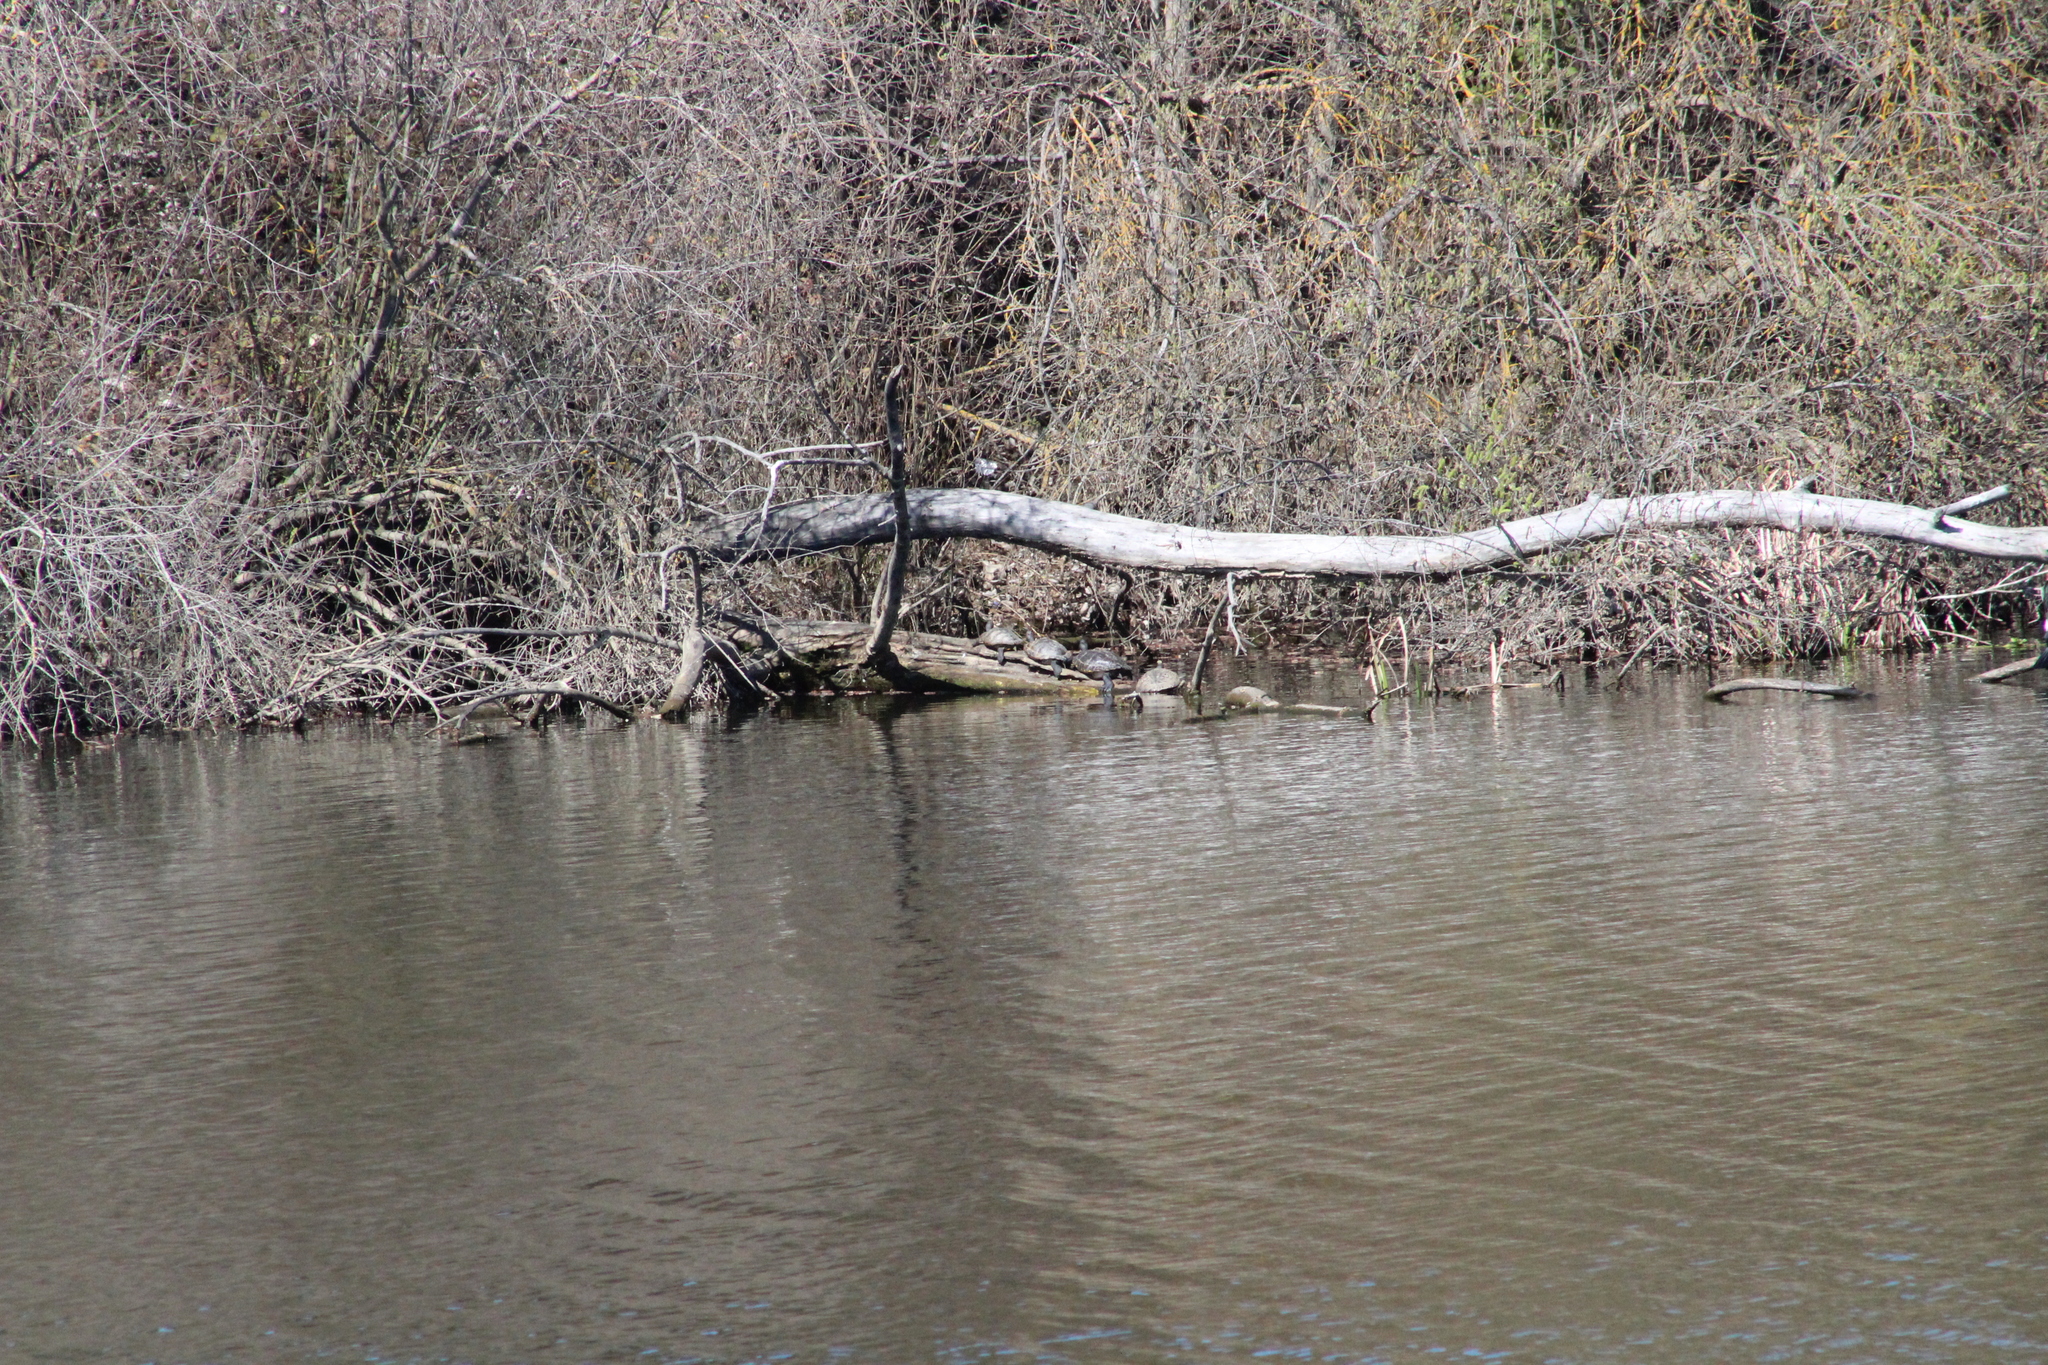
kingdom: Animalia
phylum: Chordata
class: Testudines
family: Geoemydidae
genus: Mauremys
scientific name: Mauremys leprosa
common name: Mediterranean pond turtle
